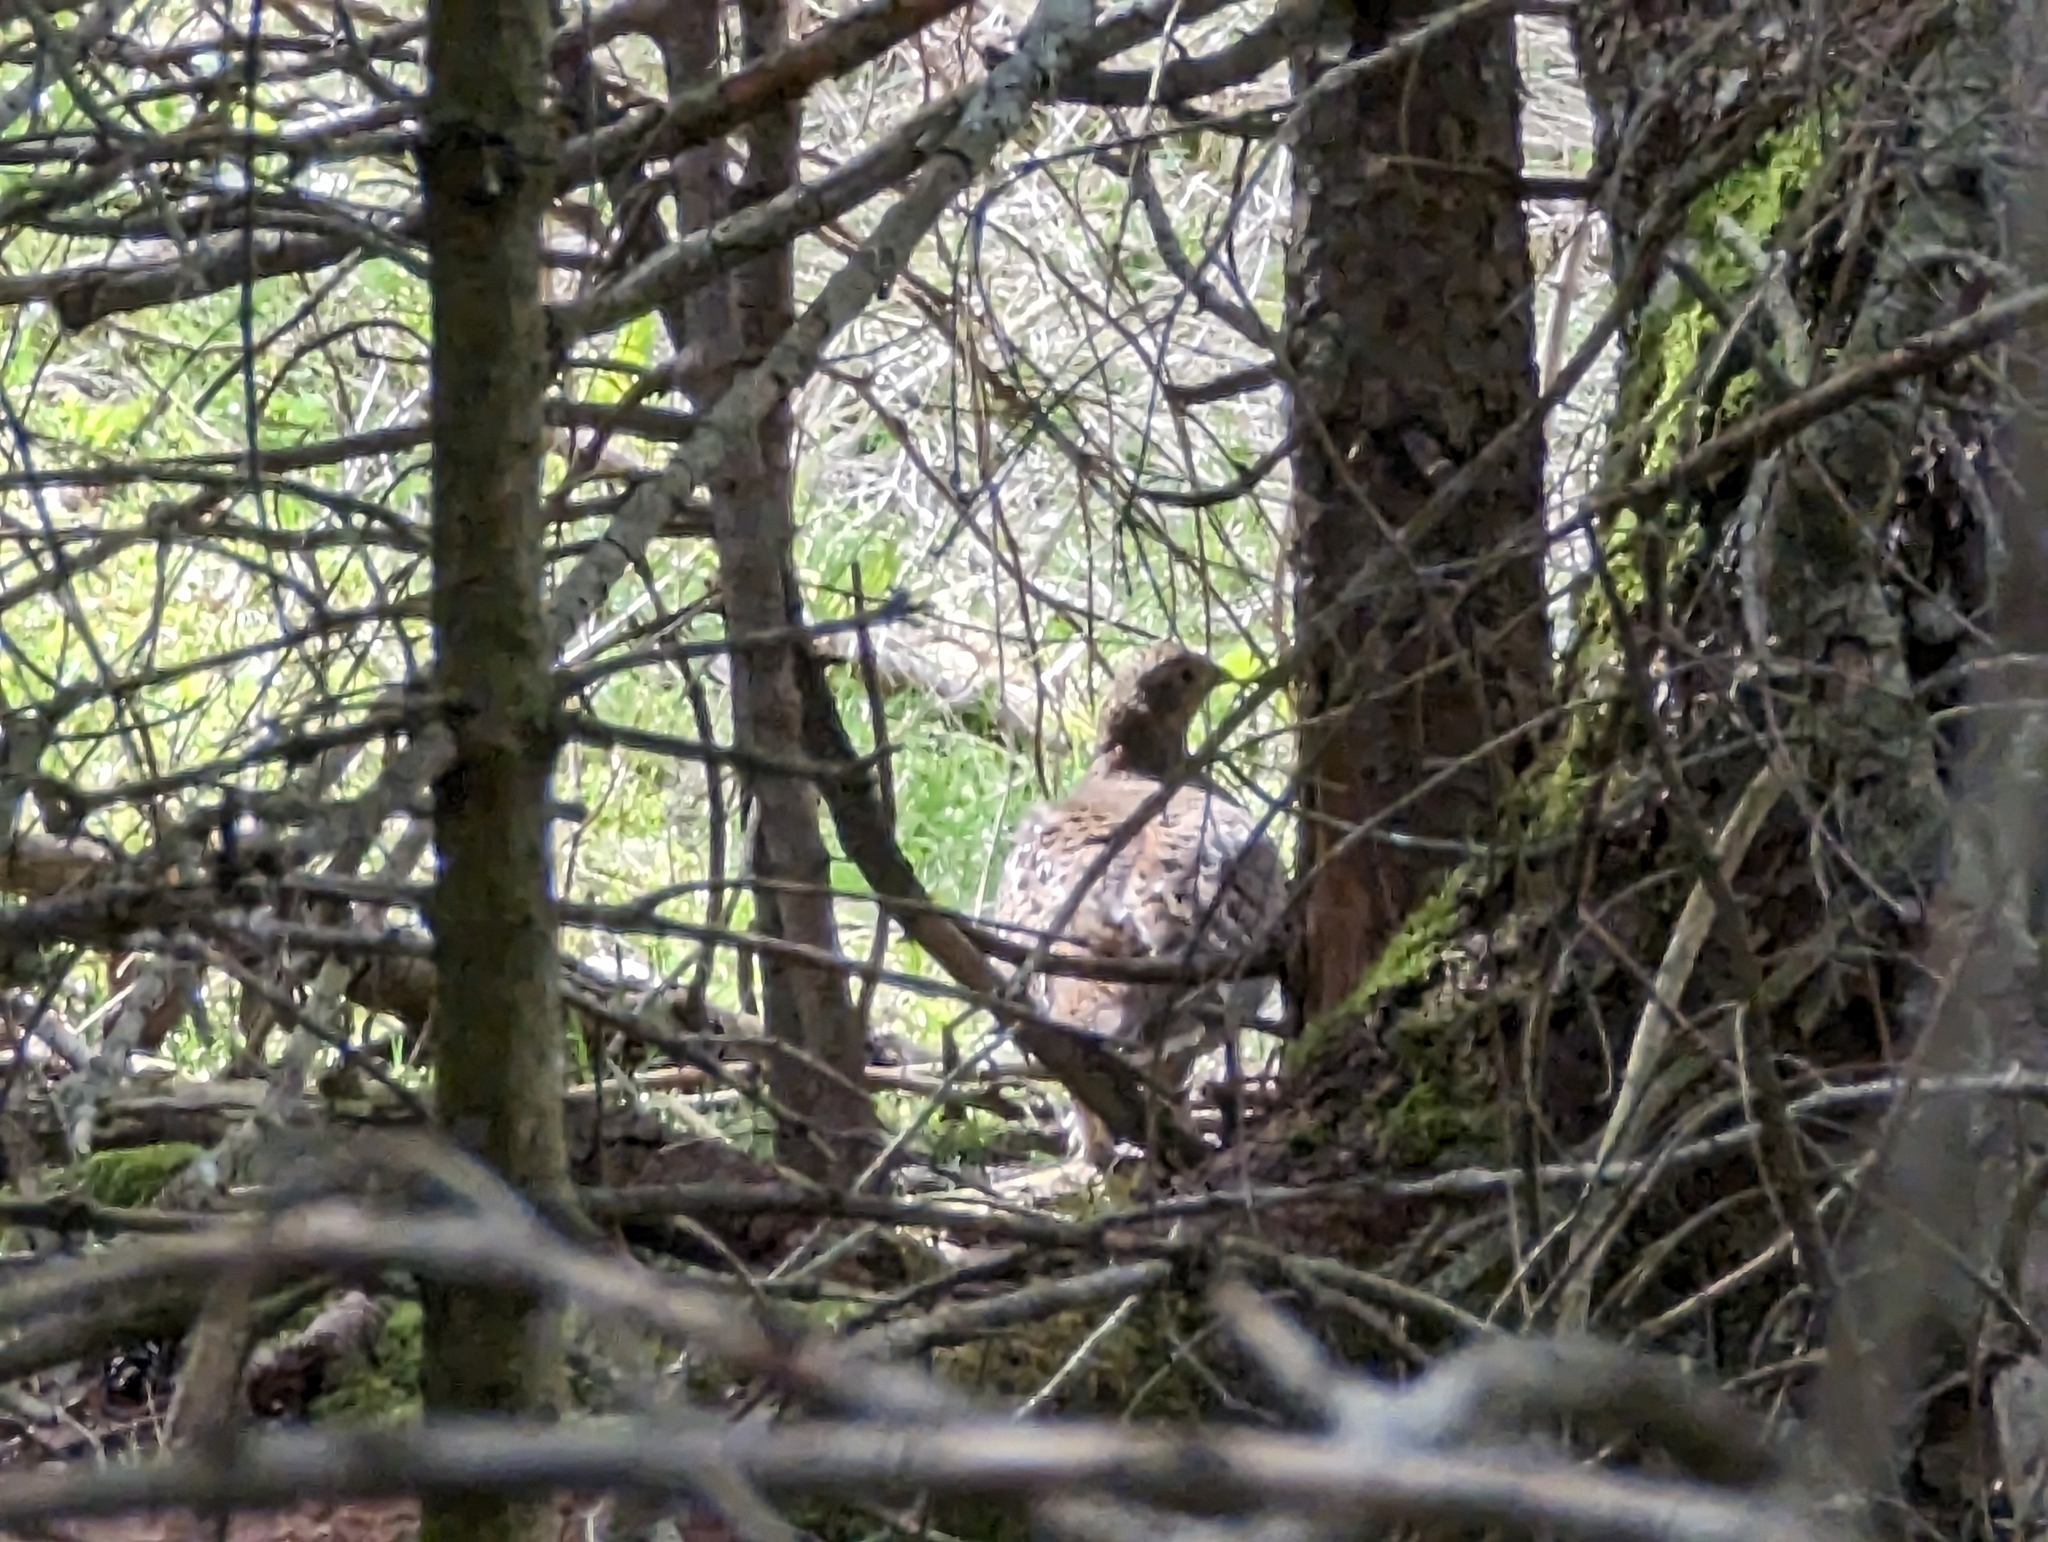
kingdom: Animalia
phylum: Chordata
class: Aves
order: Galliformes
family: Phasianidae
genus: Tetrao
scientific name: Tetrao urogallus
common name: Western capercaillie
